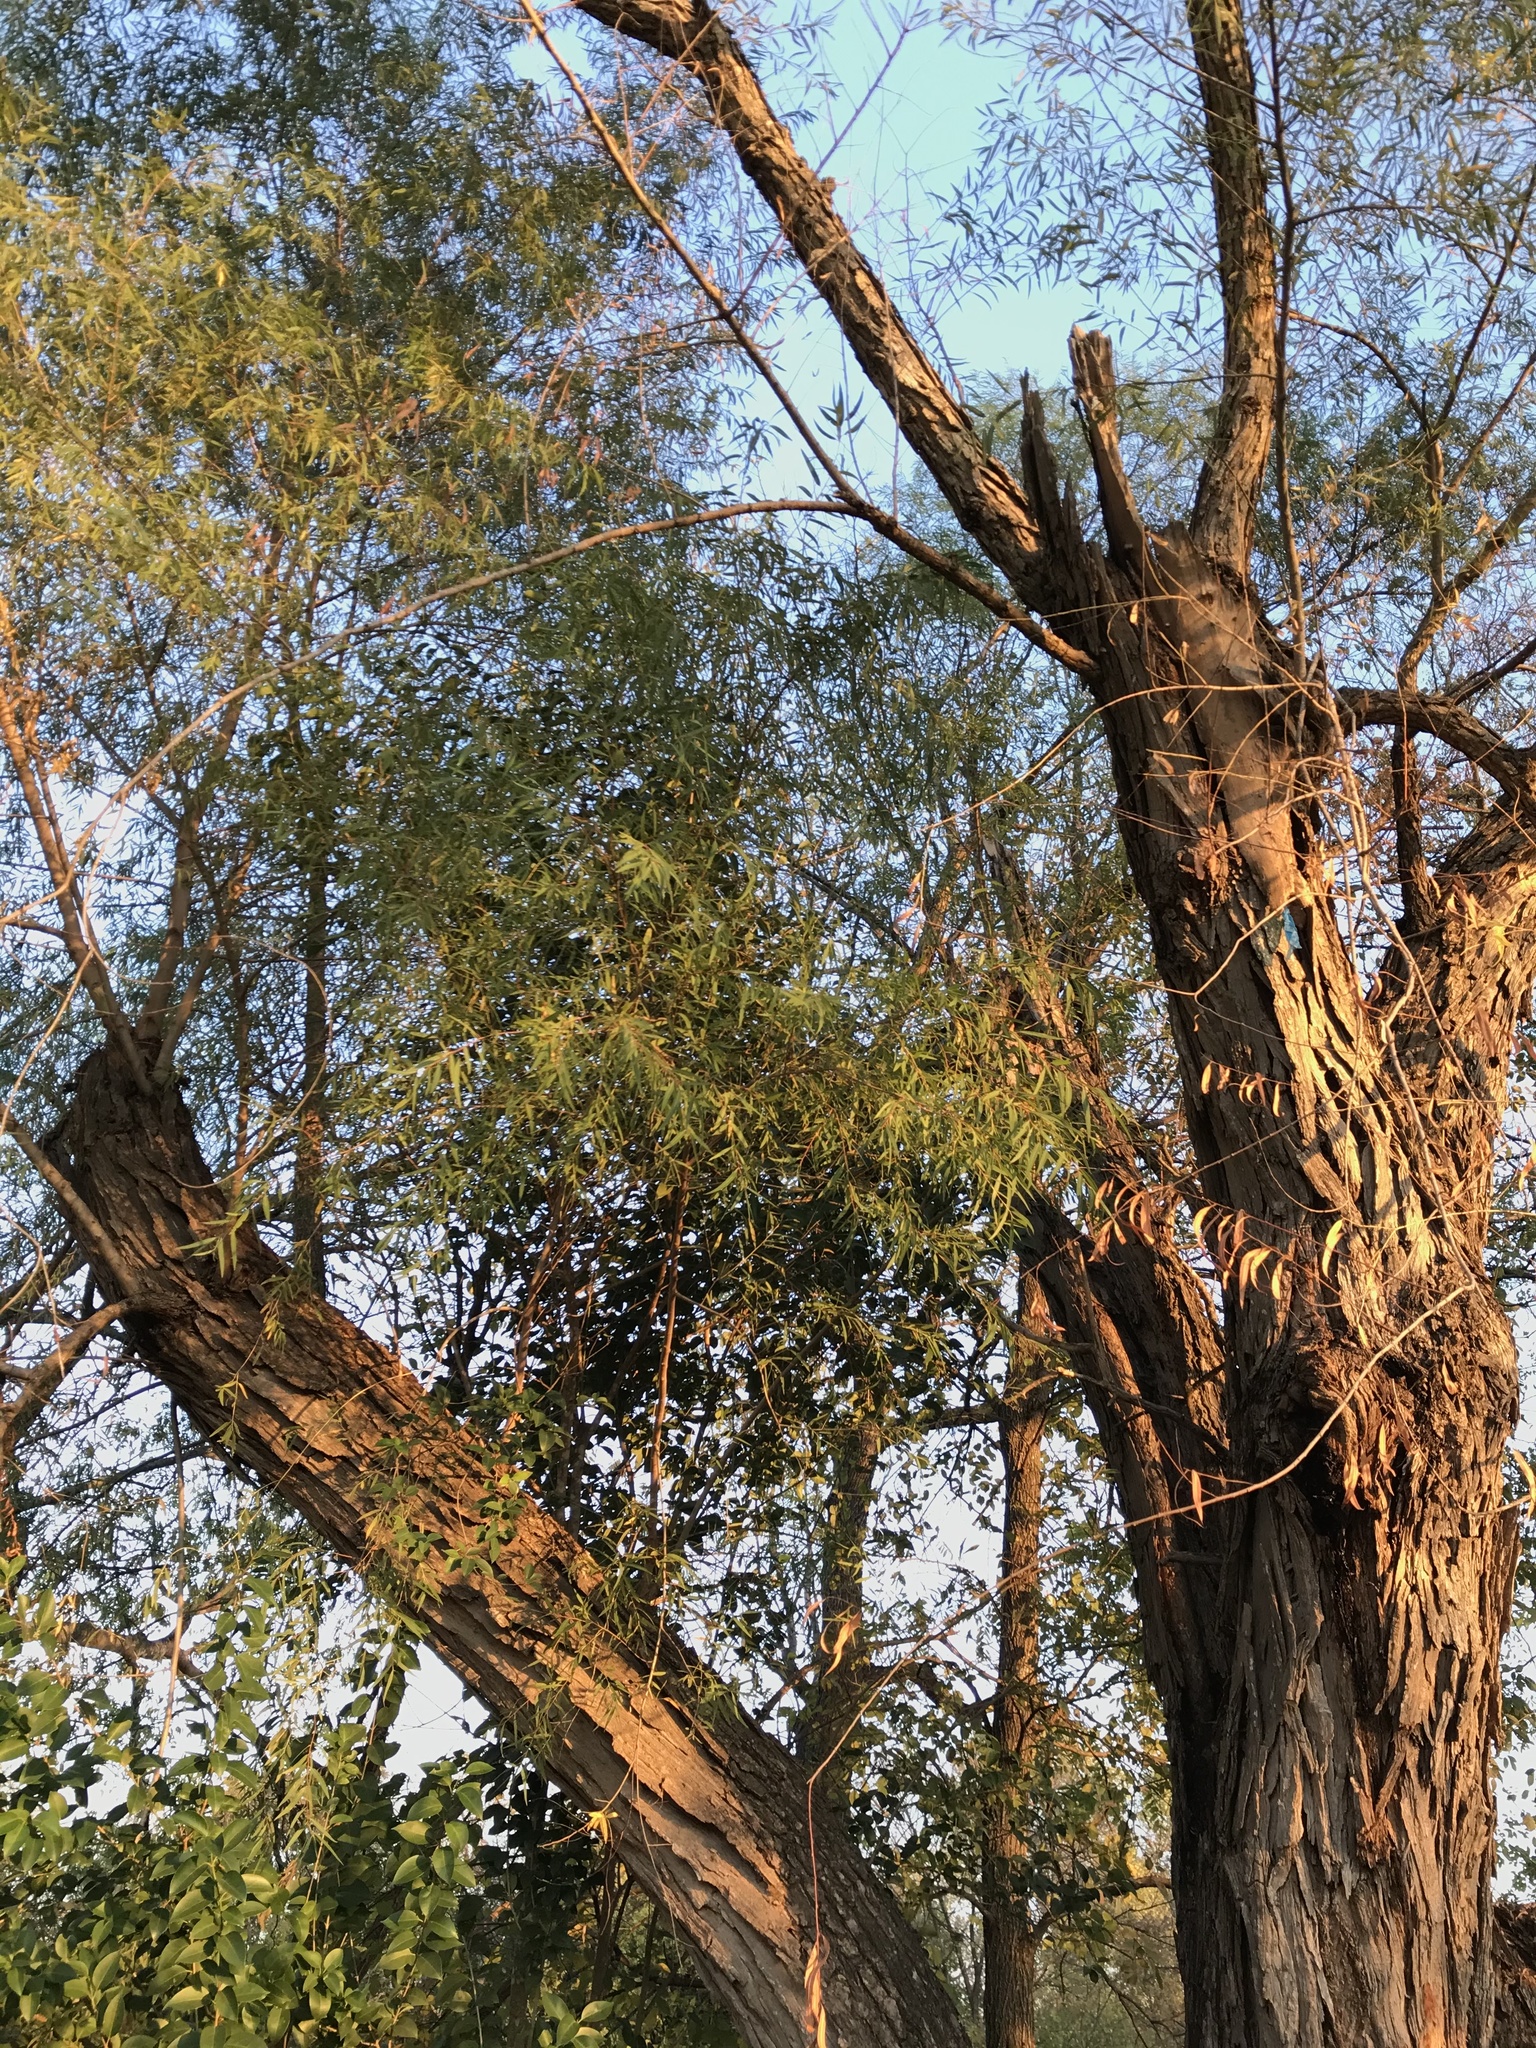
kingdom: Plantae
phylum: Tracheophyta
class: Magnoliopsida
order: Malpighiales
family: Salicaceae
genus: Salix
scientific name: Salix nigra
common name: Black willow
